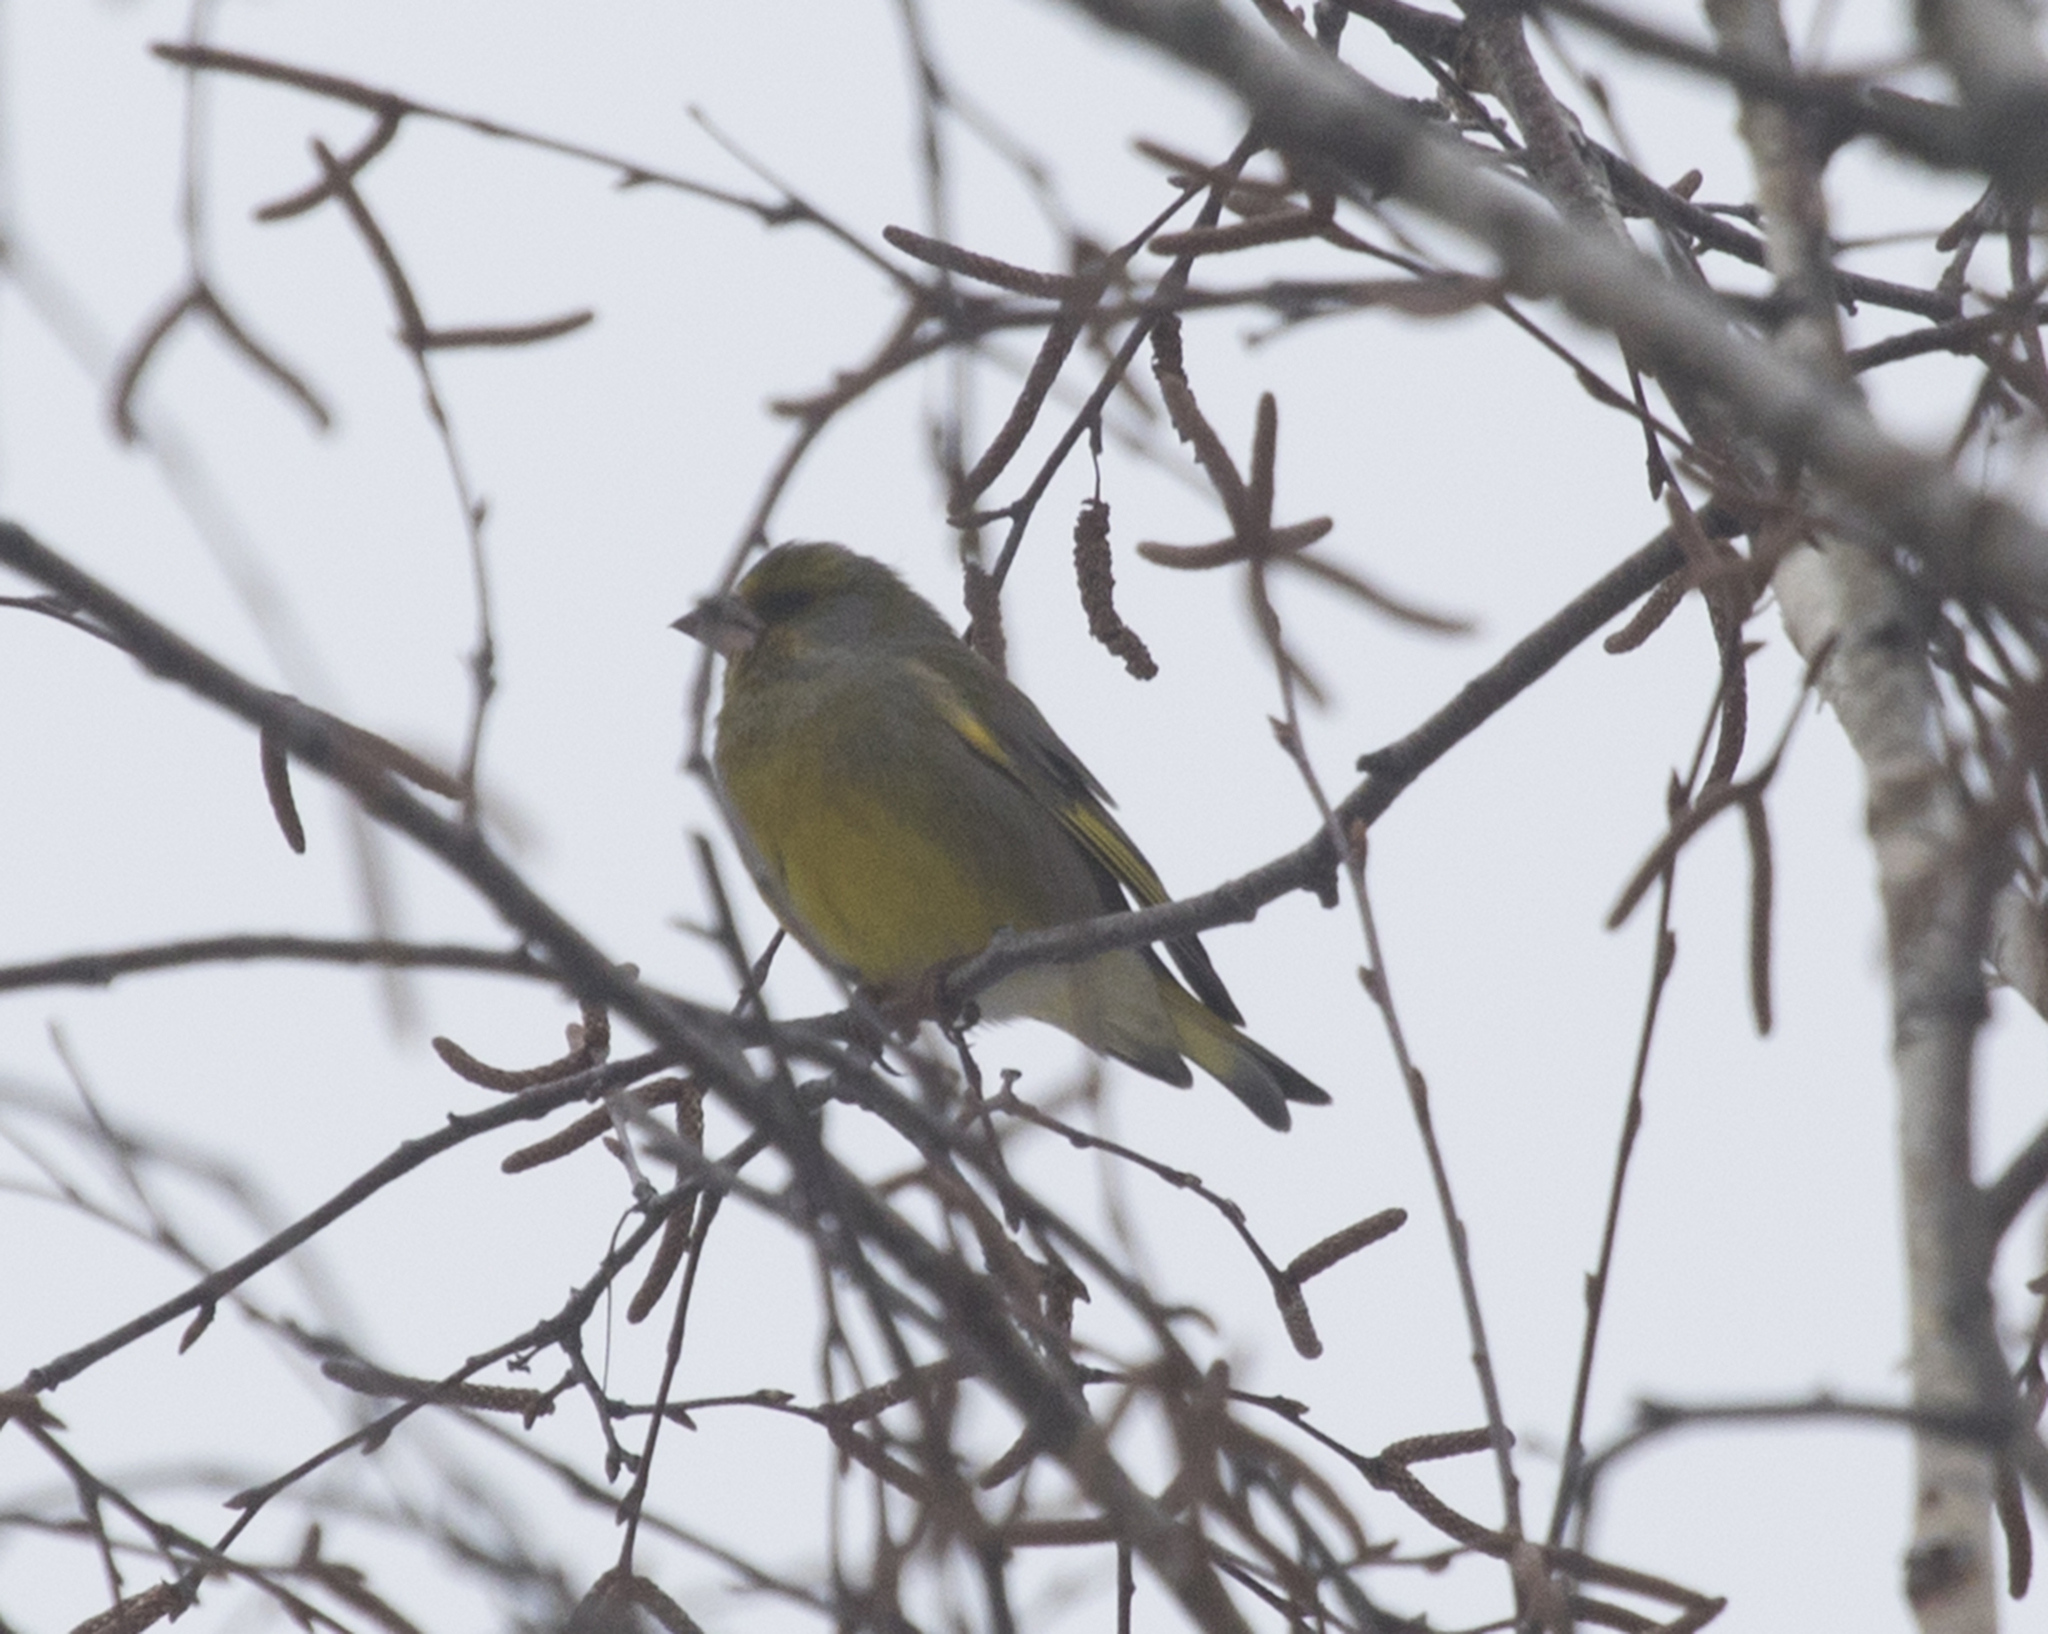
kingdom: Plantae
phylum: Tracheophyta
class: Liliopsida
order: Poales
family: Poaceae
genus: Chloris
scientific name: Chloris chloris
